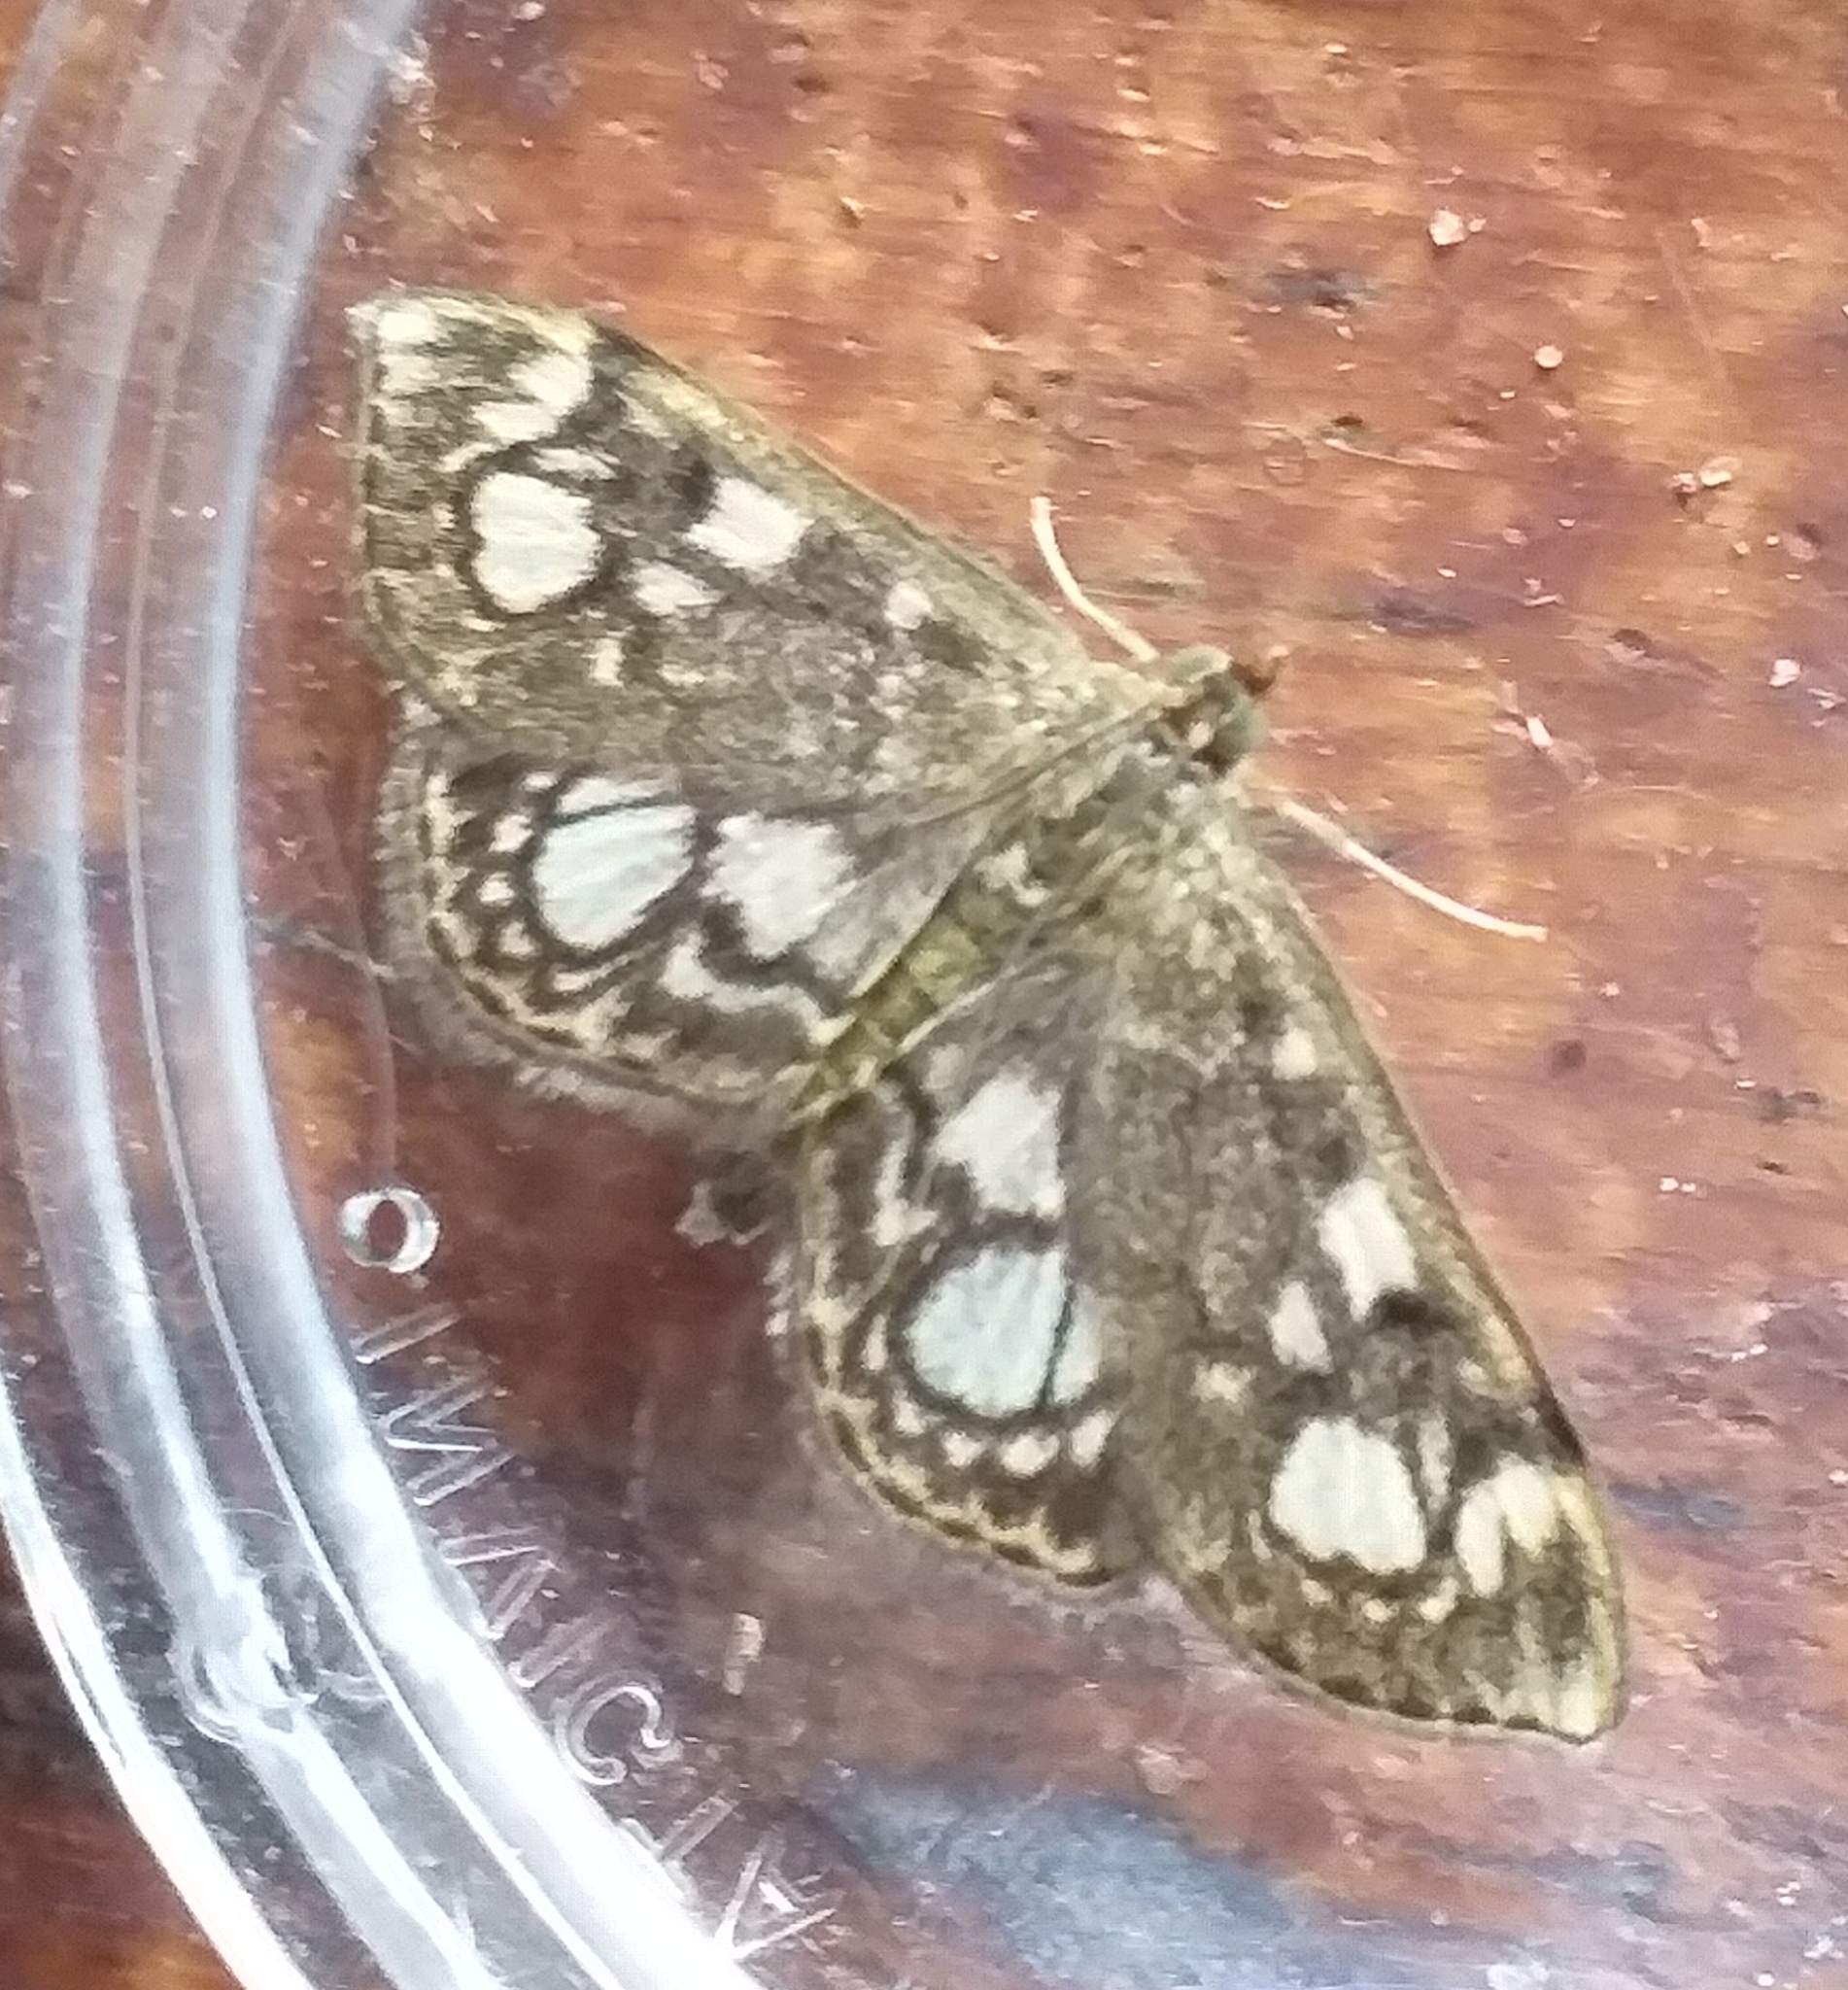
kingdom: Animalia
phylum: Arthropoda
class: Insecta
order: Lepidoptera
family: Crambidae
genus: Anania
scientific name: Anania coronata
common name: Elder pearl
